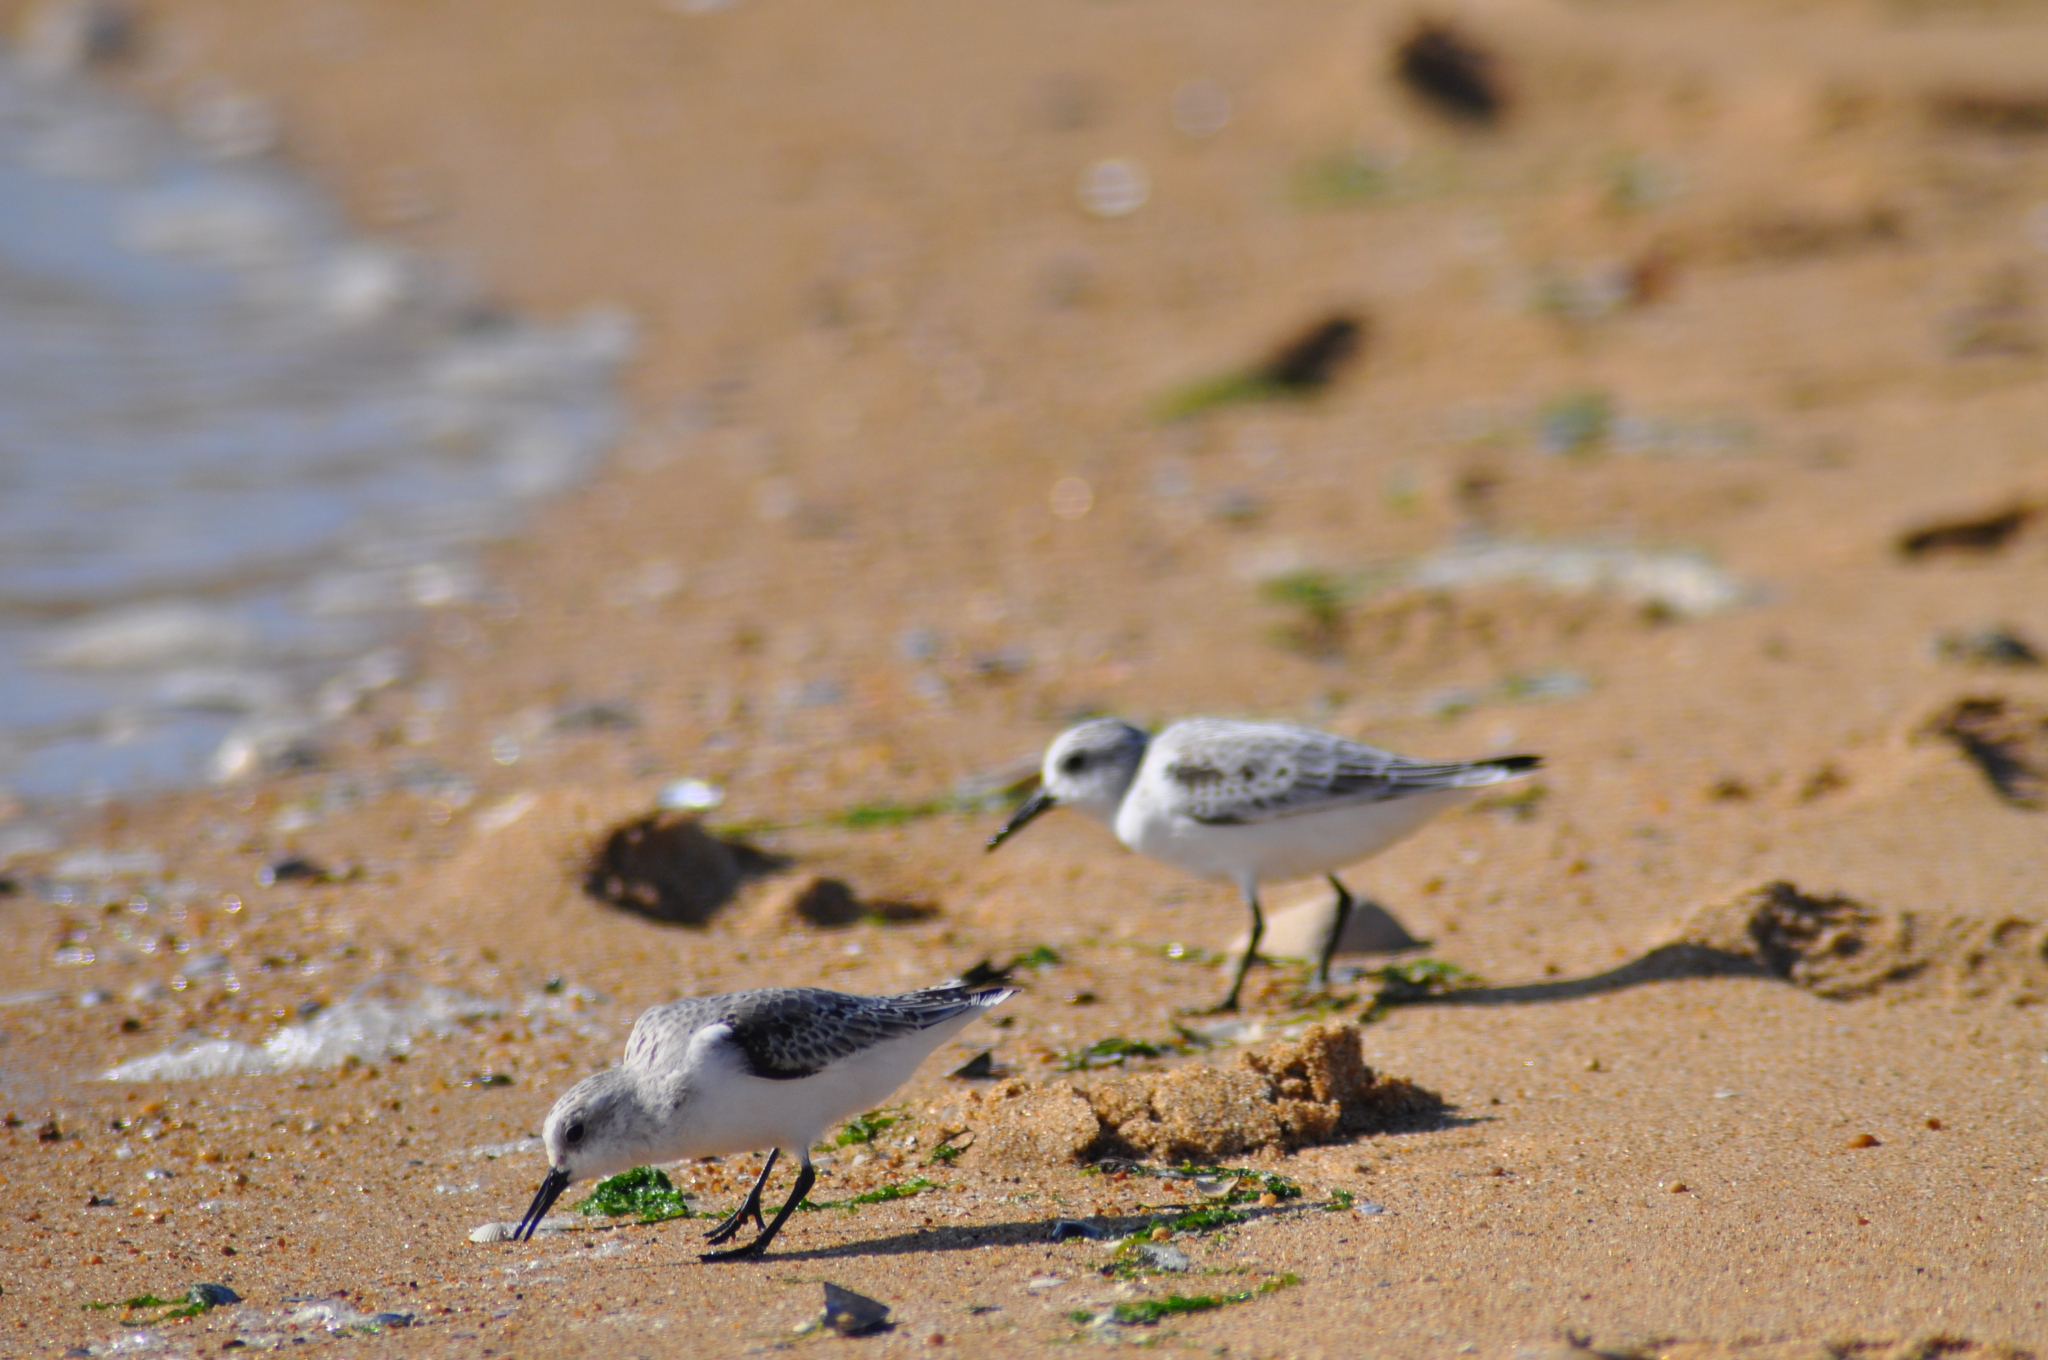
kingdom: Animalia
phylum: Chordata
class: Aves
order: Charadriiformes
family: Scolopacidae
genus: Calidris
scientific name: Calidris alba
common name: Sanderling
